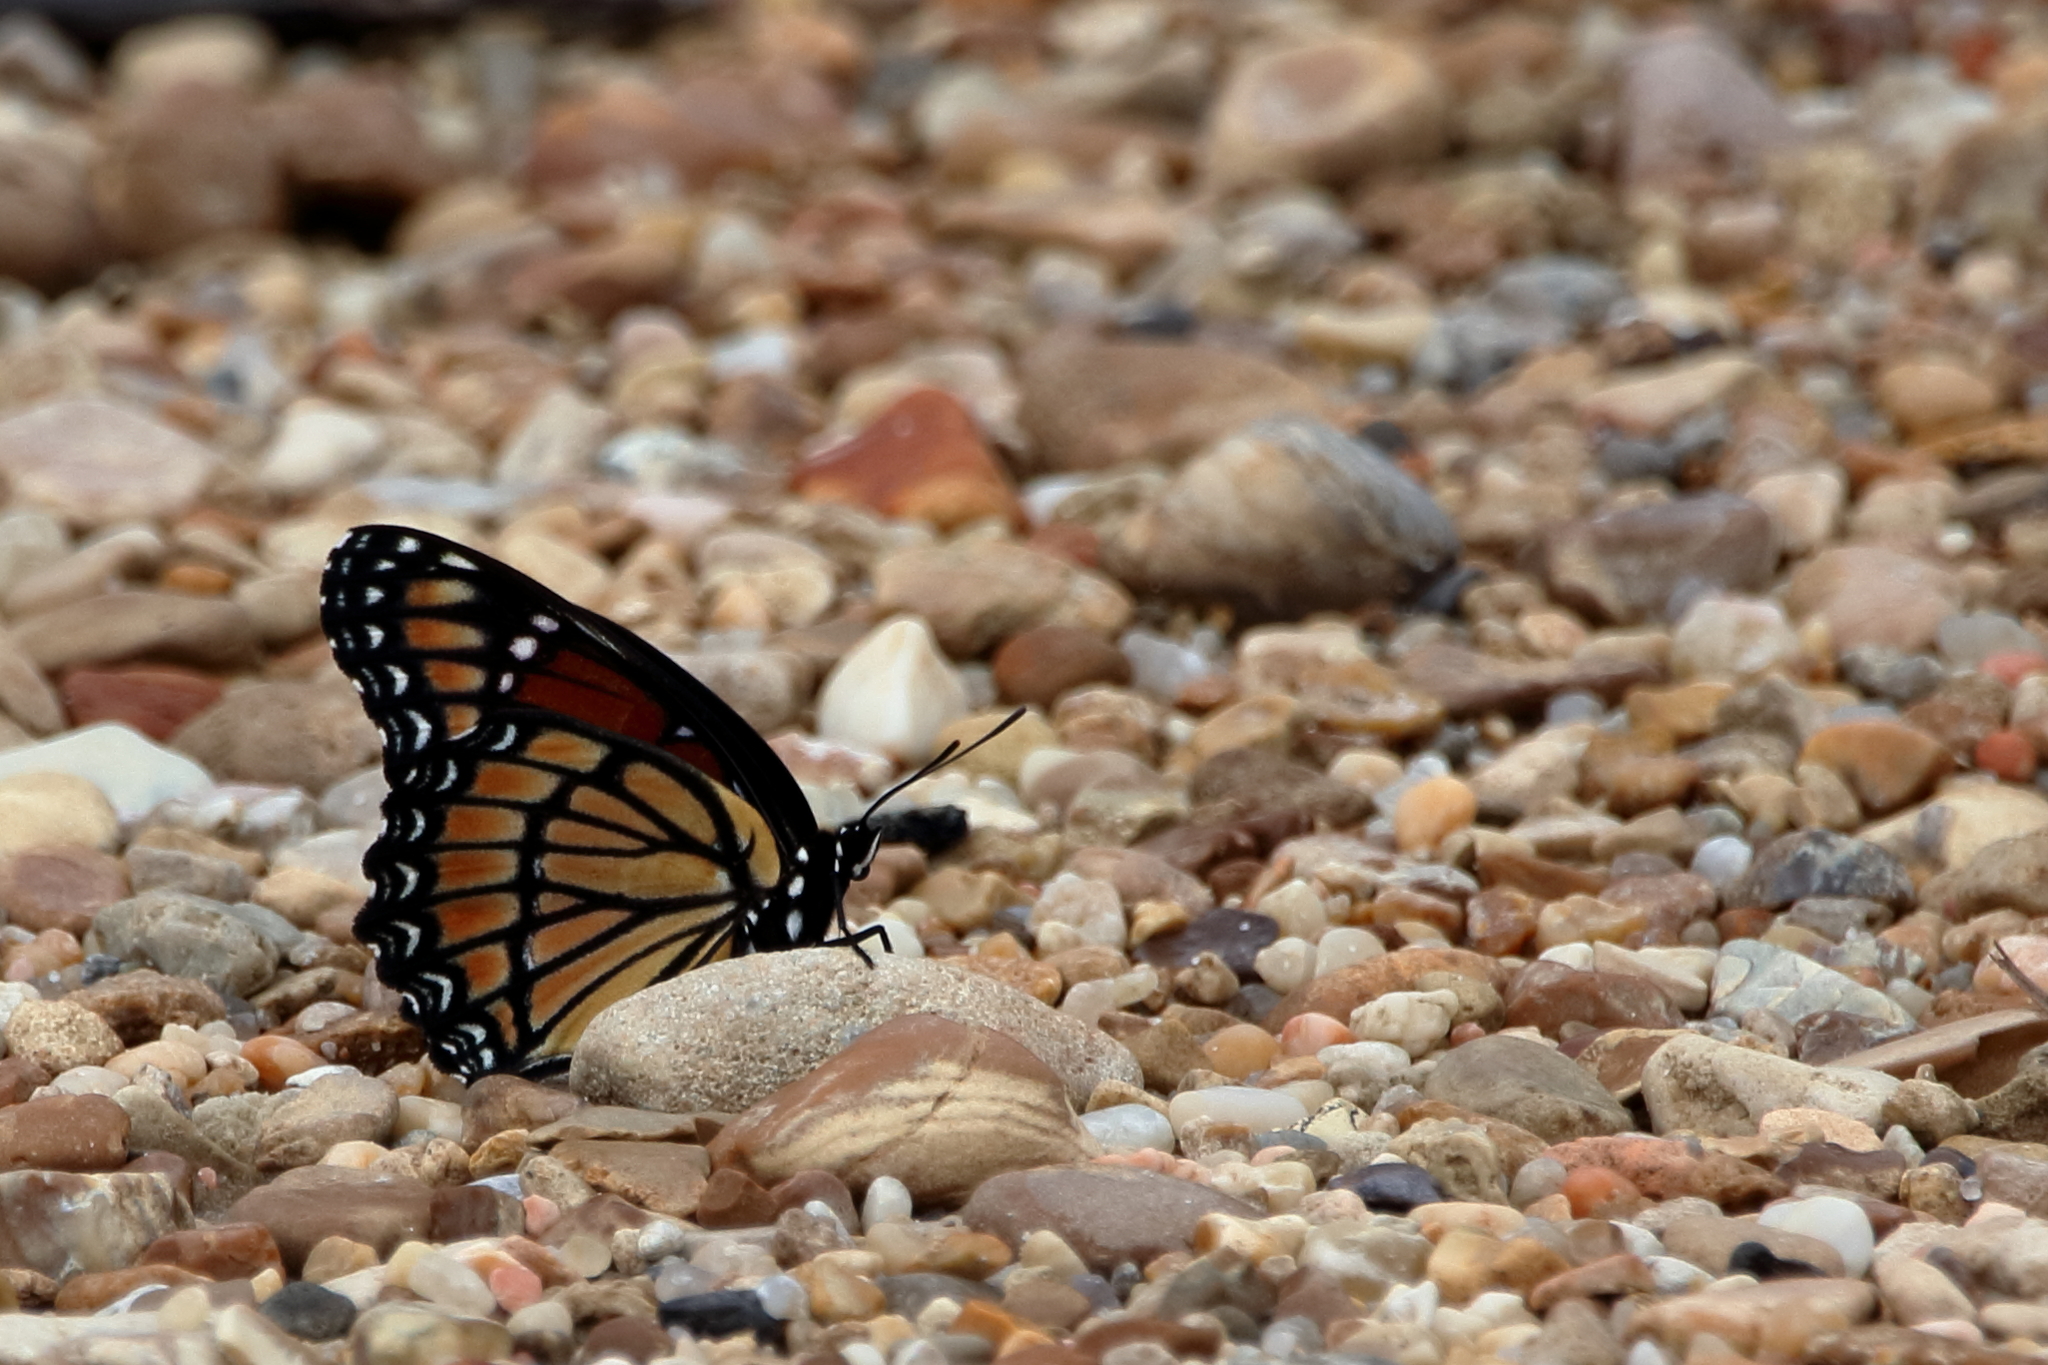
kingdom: Animalia
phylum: Arthropoda
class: Insecta
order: Lepidoptera
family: Nymphalidae
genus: Limenitis
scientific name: Limenitis archippus
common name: Viceroy
